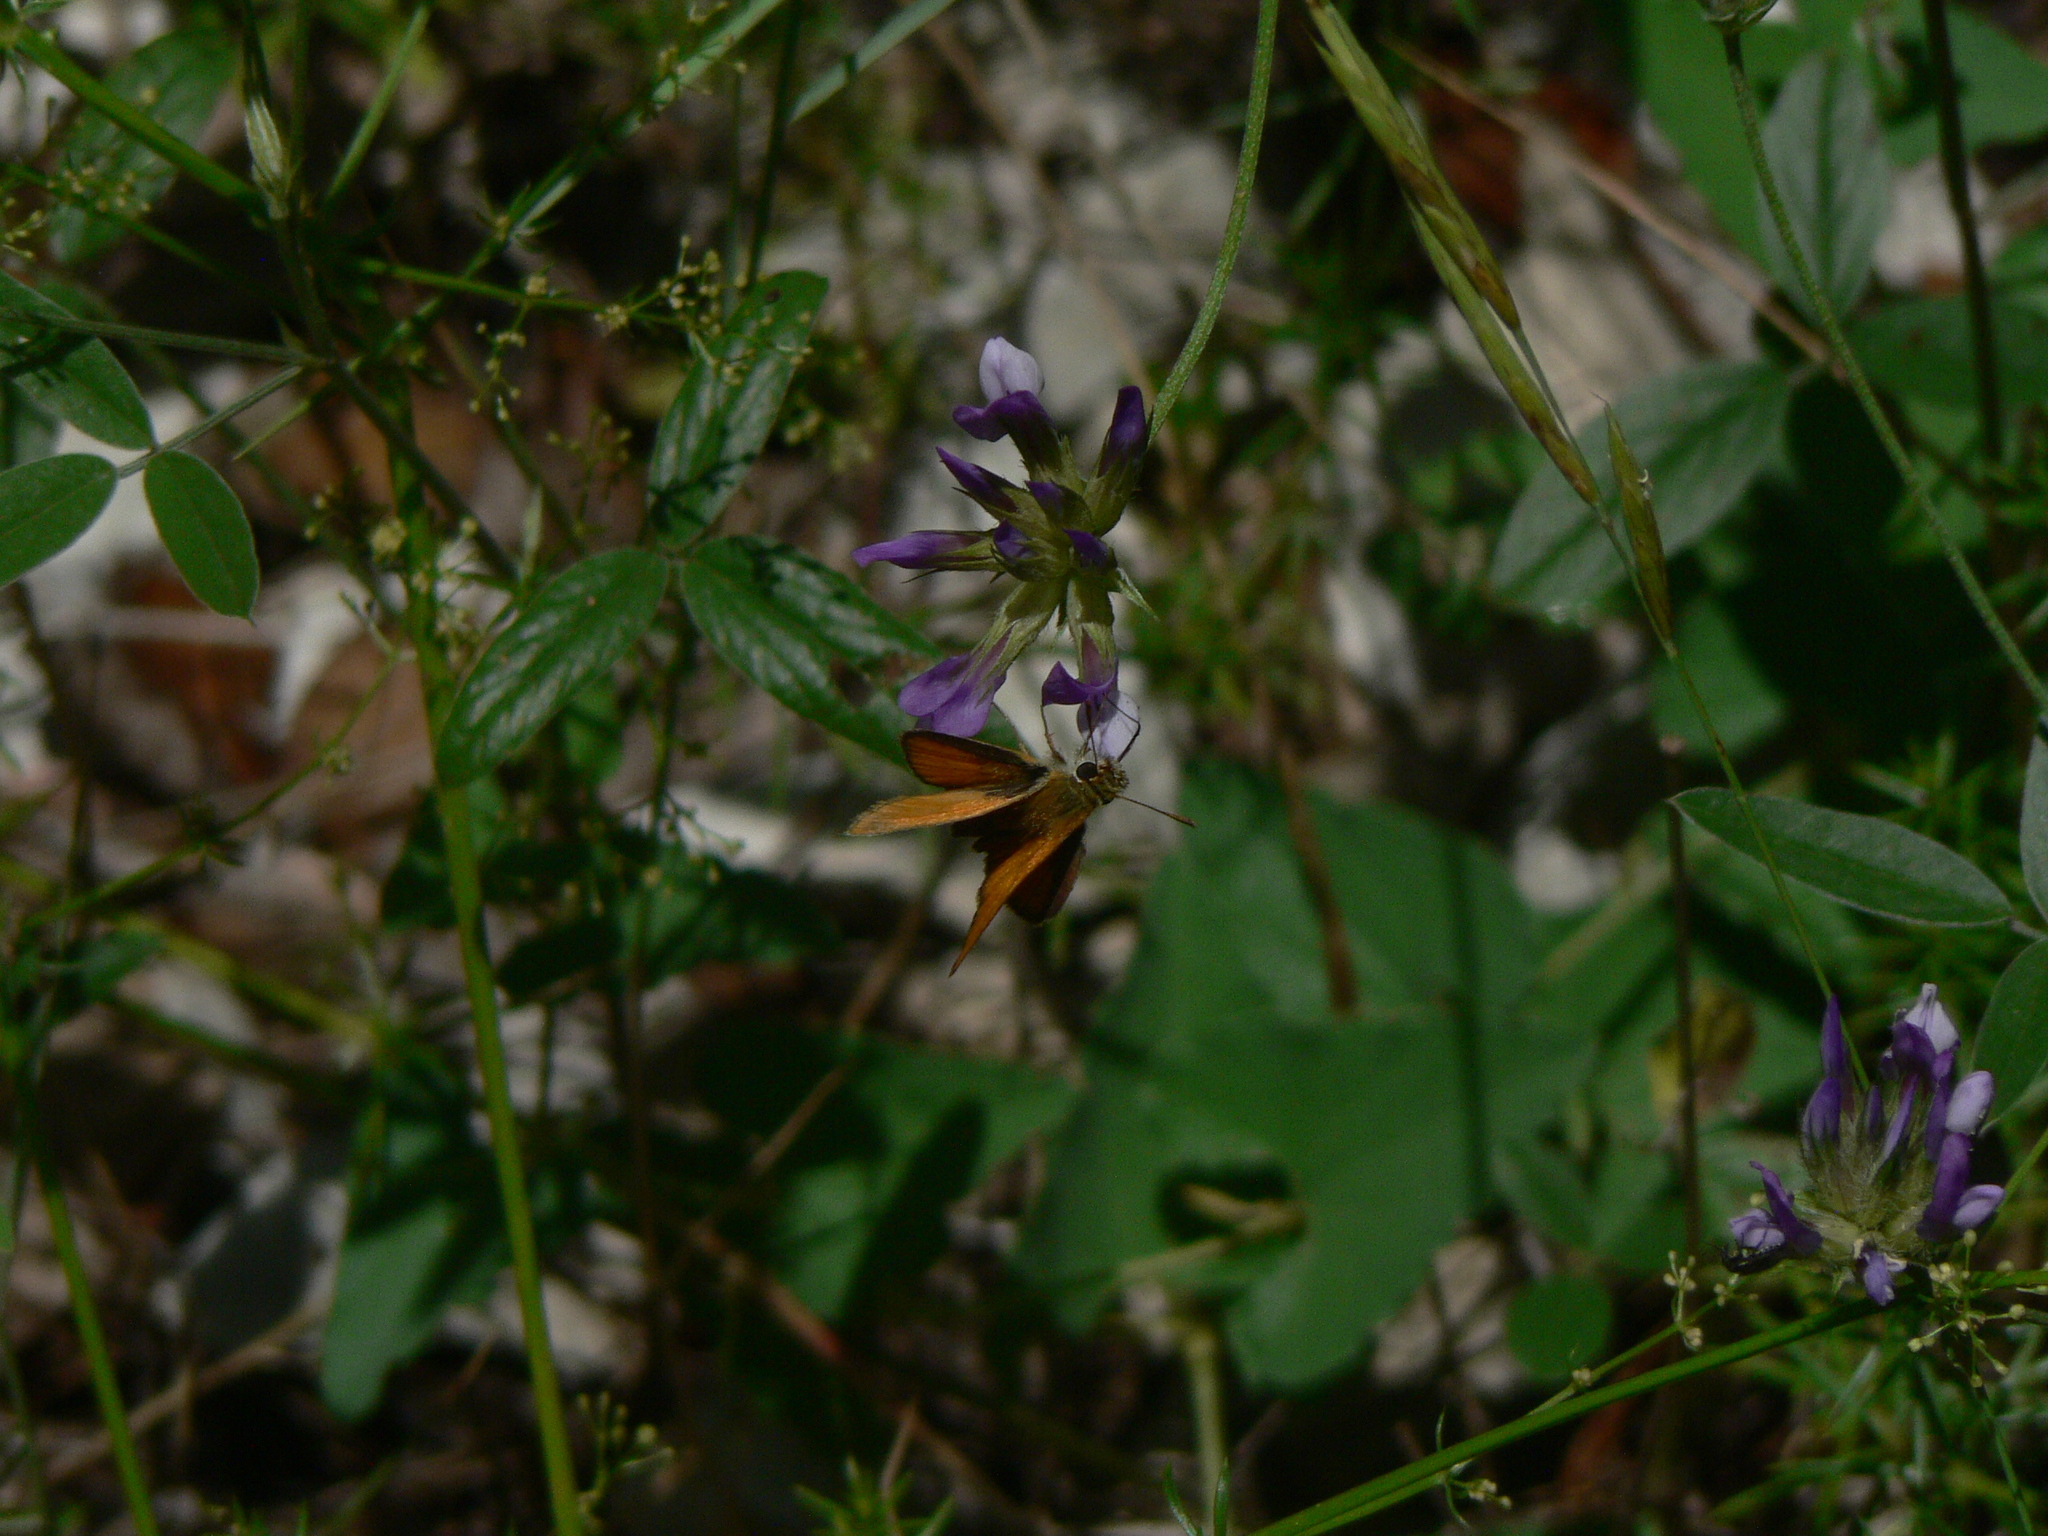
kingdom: Animalia
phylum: Arthropoda
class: Insecta
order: Lepidoptera
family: Hesperiidae
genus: Thymelicus
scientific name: Thymelicus sylvestris
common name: Small skipper
